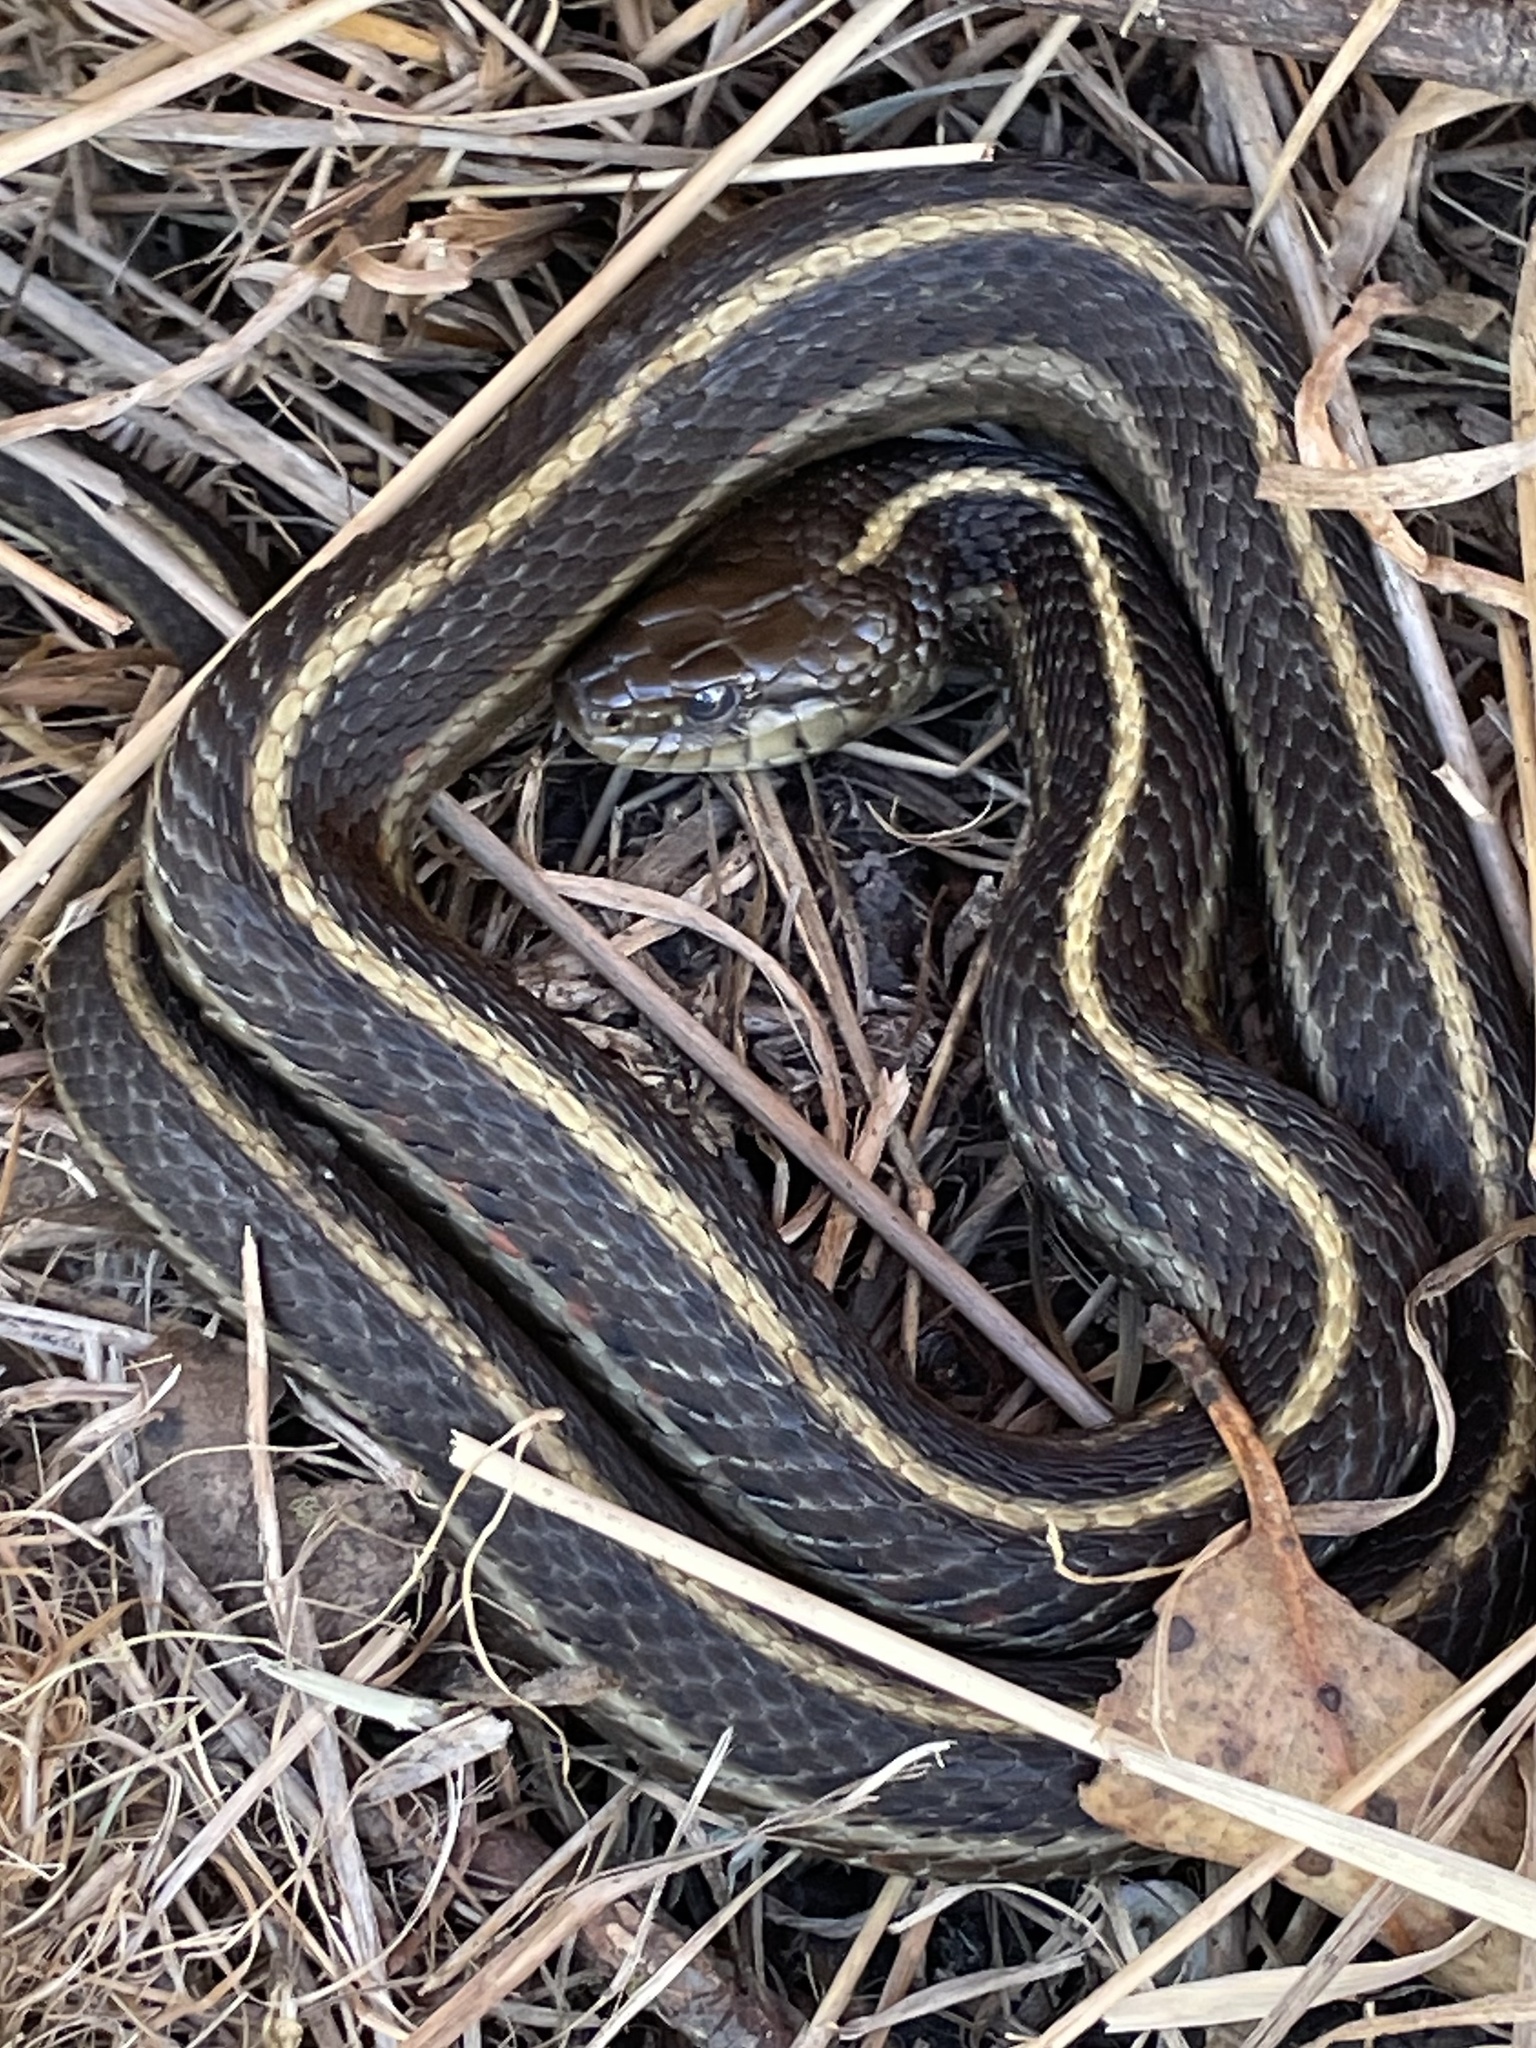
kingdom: Animalia
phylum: Chordata
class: Squamata
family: Colubridae
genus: Thamnophis
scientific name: Thamnophis elegans
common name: Western terrestrial garter snake
